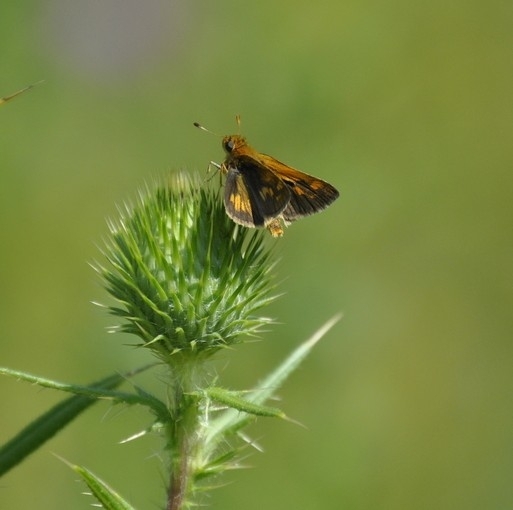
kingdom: Animalia
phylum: Arthropoda
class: Insecta
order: Lepidoptera
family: Hesperiidae
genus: Polites
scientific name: Polites coras
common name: Peck's skipper
